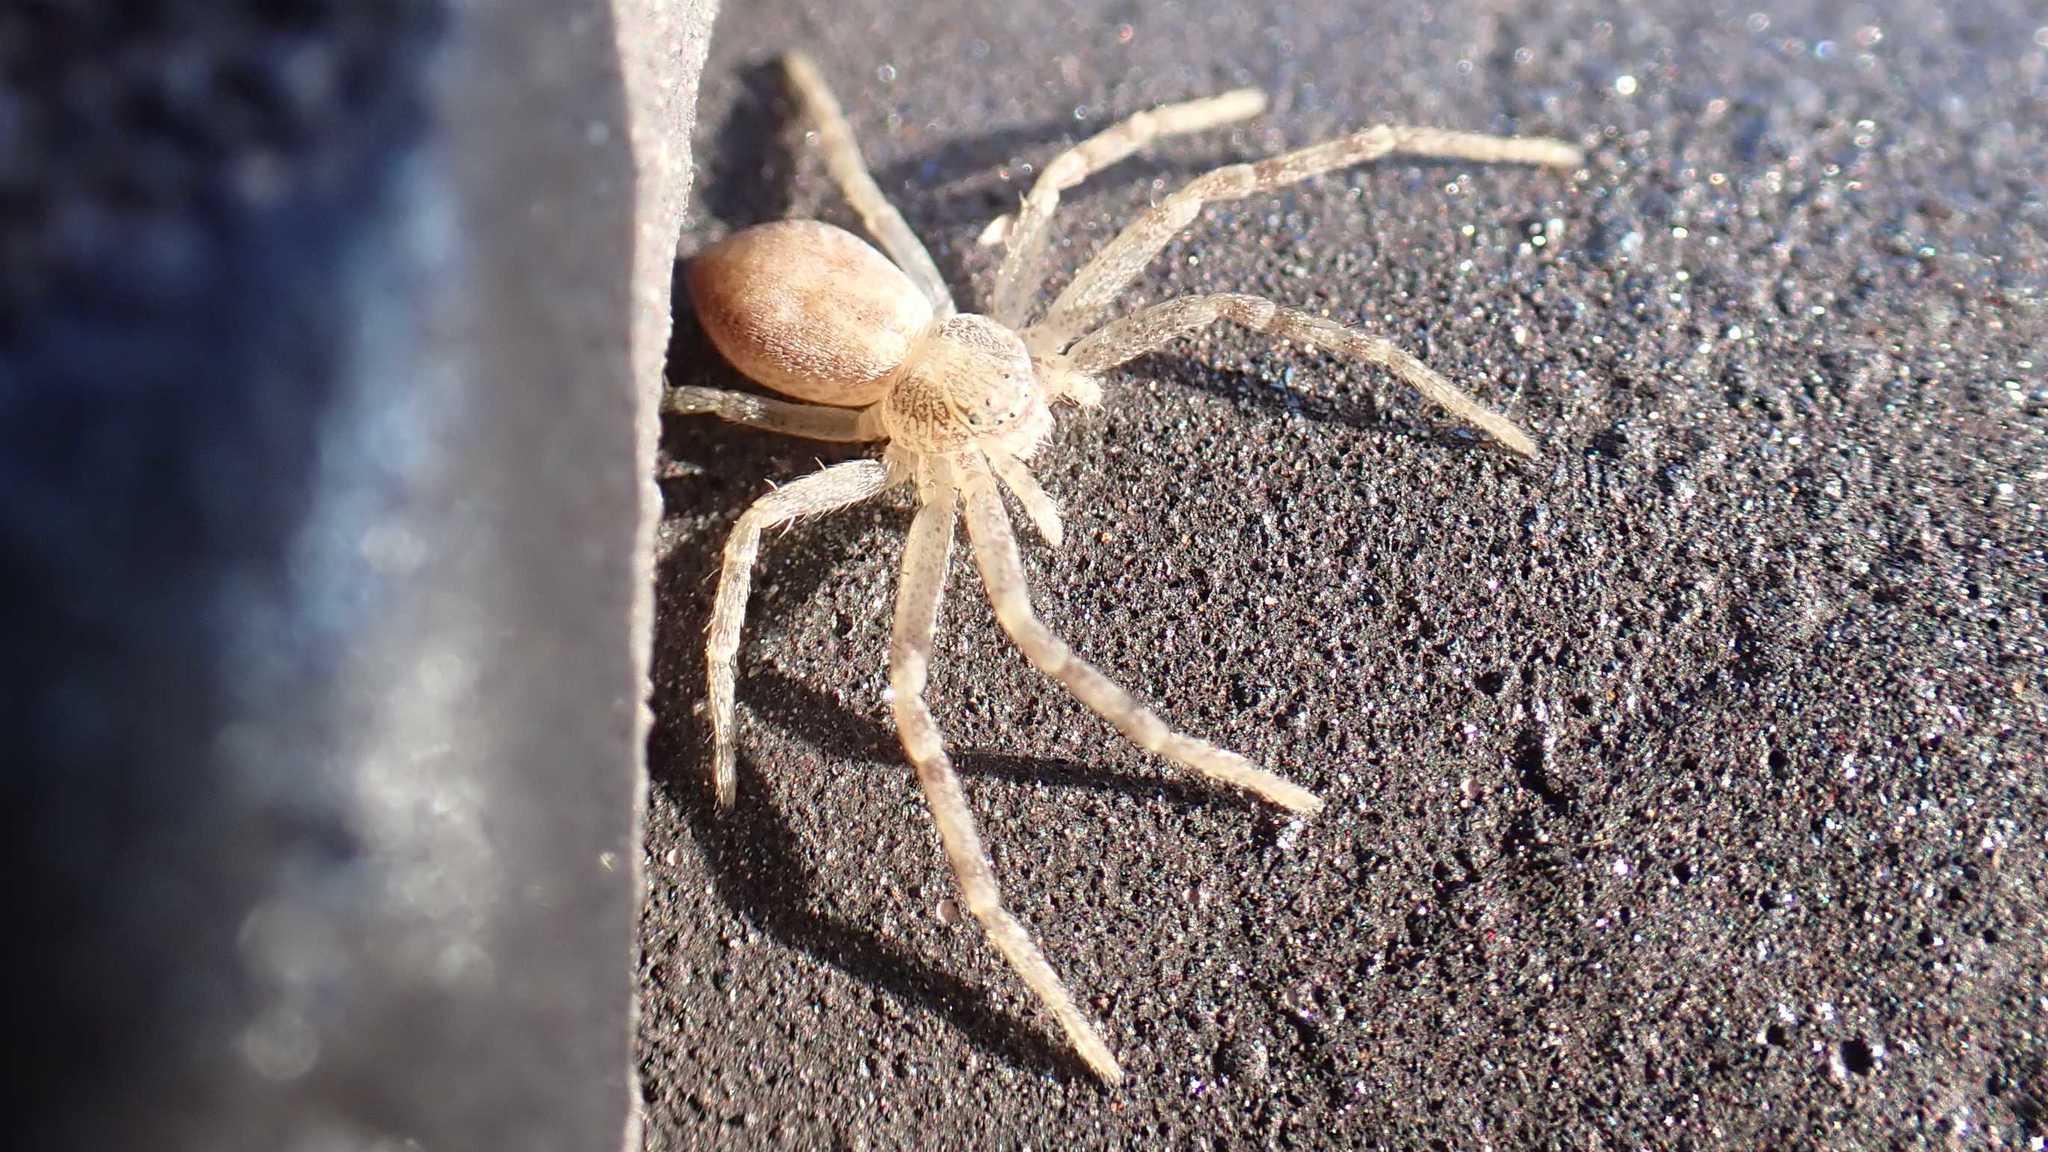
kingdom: Animalia
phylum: Arthropoda
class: Arachnida
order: Araneae
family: Philodromidae
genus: Philodromus
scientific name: Philodromus
